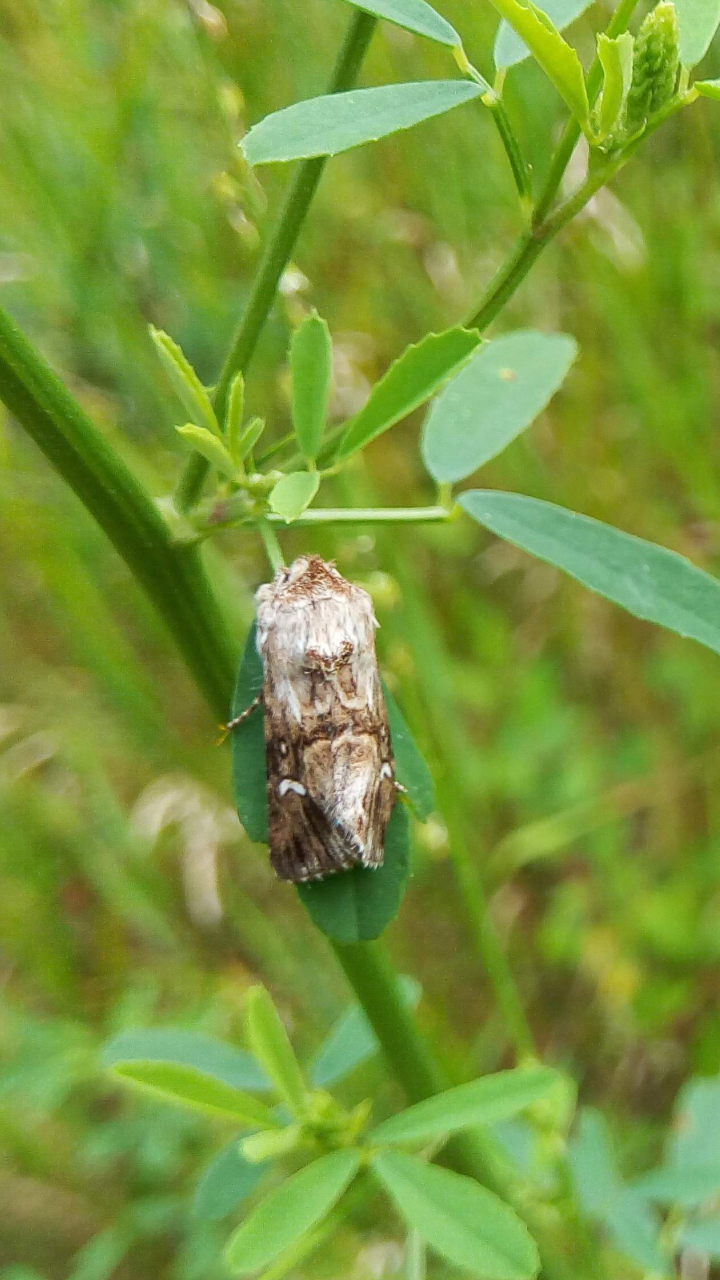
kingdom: Animalia
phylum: Arthropoda
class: Insecta
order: Lepidoptera
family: Noctuidae
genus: Calophasia
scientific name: Calophasia lunula
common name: Toadflax brocade
